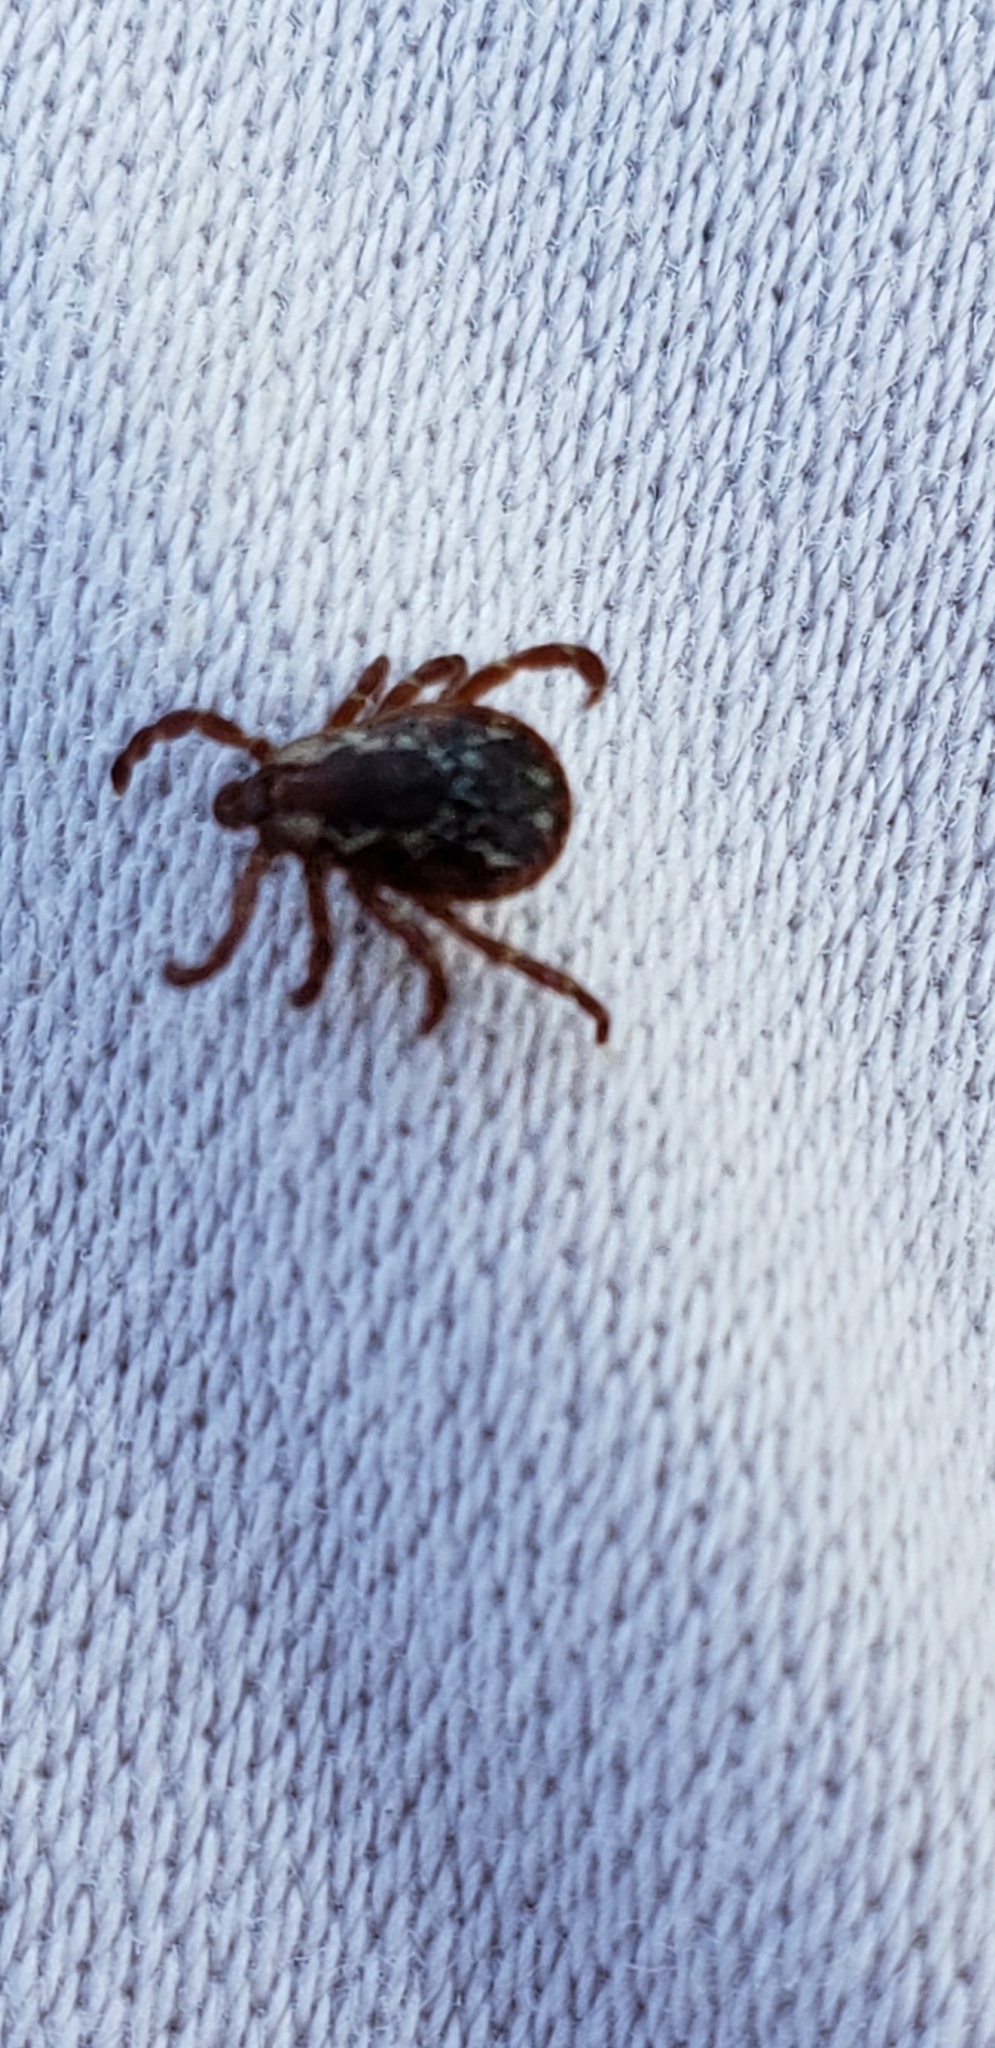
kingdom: Animalia
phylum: Arthropoda
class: Arachnida
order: Ixodida
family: Ixodidae
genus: Dermacentor
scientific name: Dermacentor variabilis
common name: American dog tick
